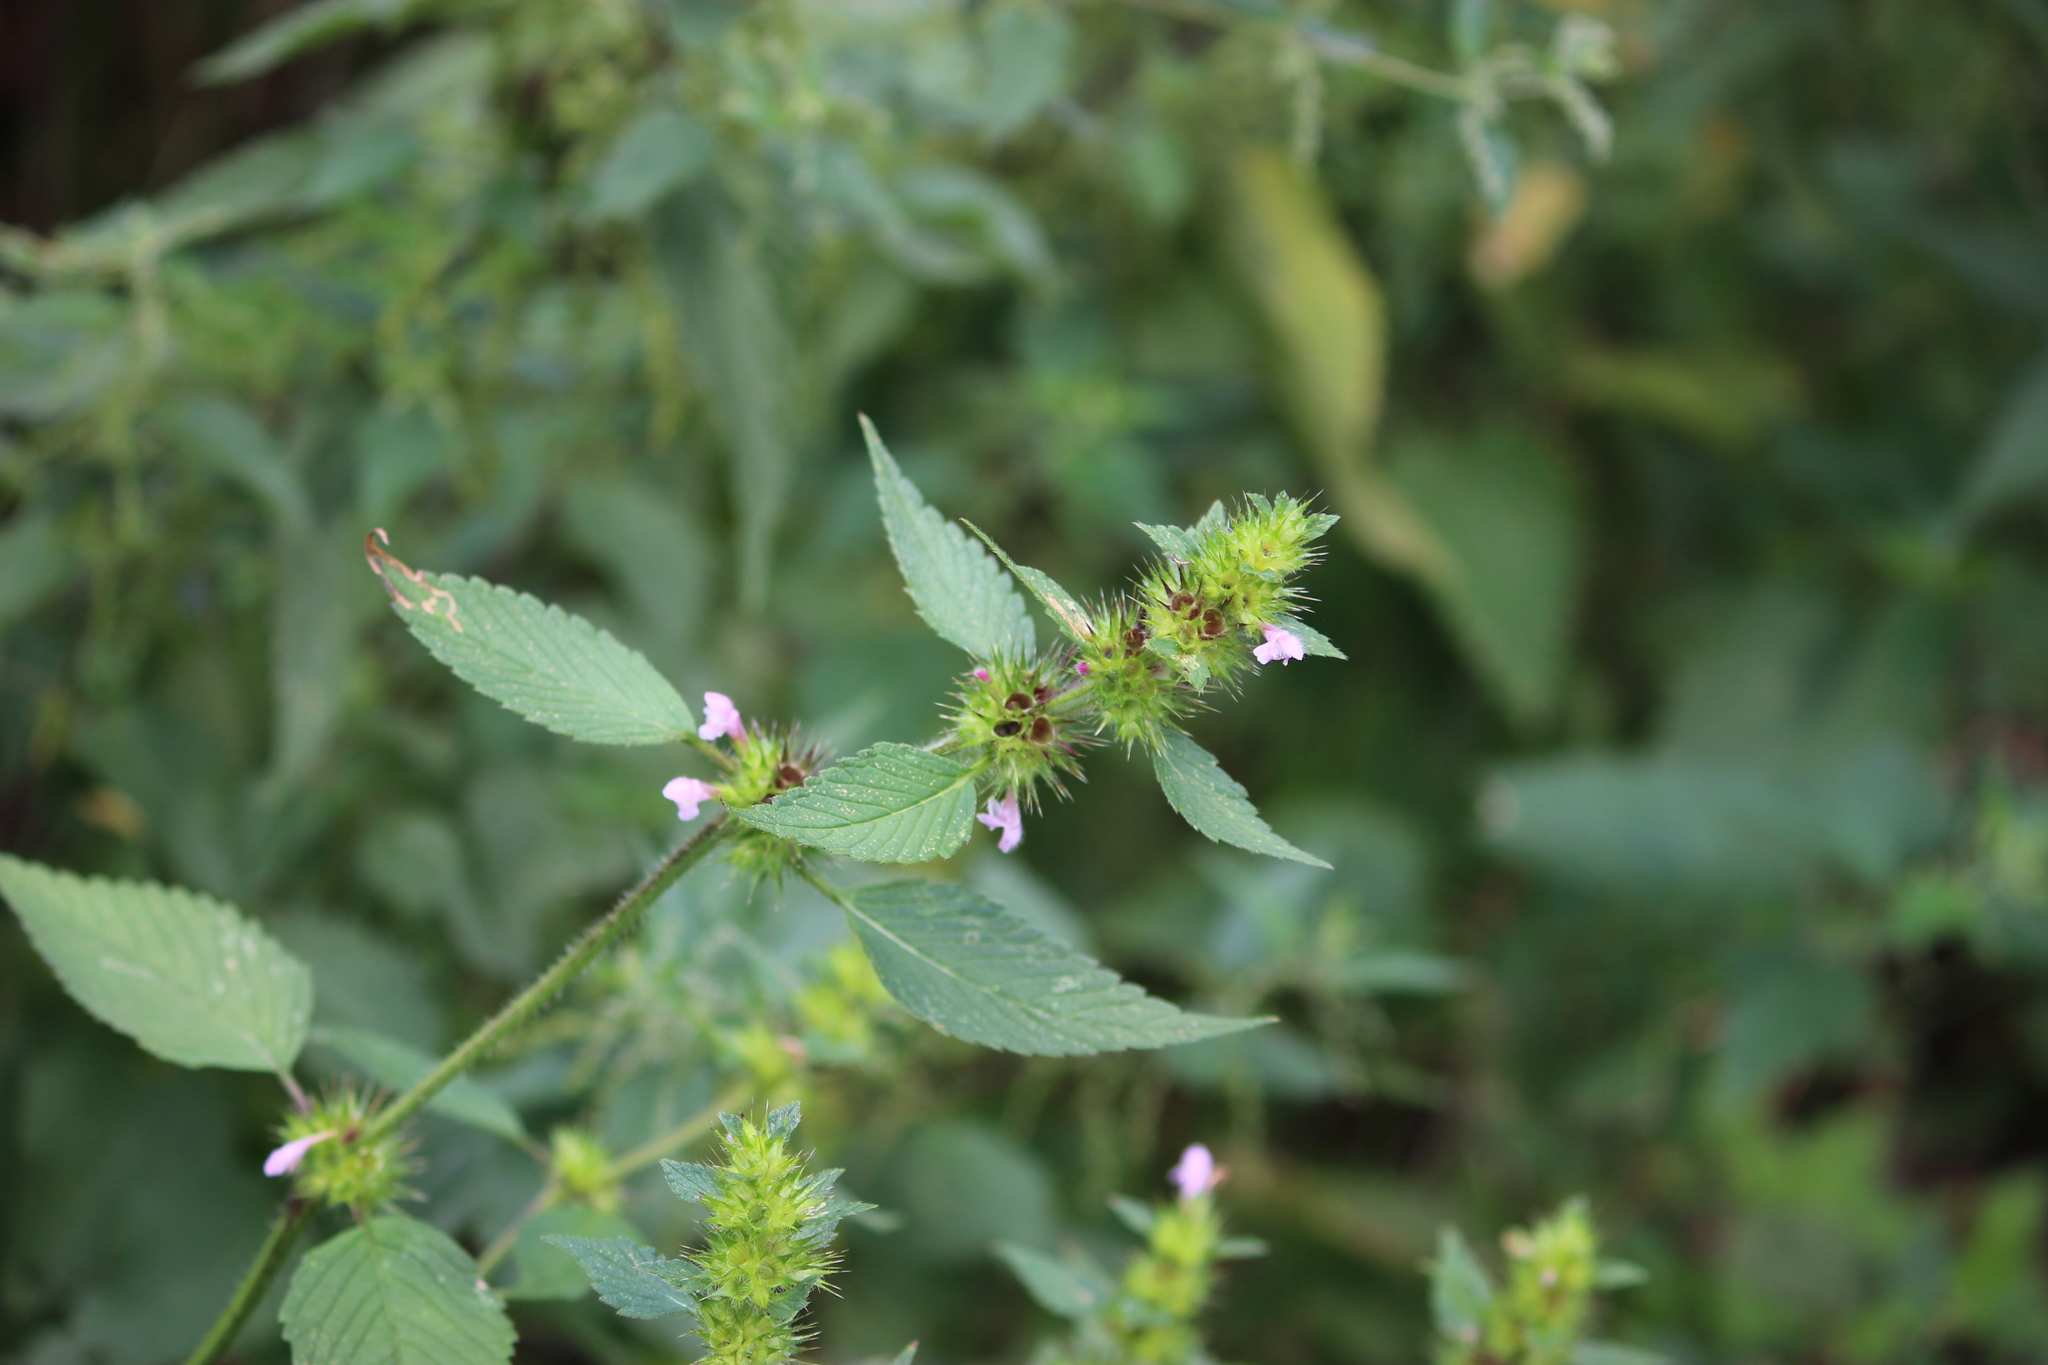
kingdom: Plantae
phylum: Tracheophyta
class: Magnoliopsida
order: Lamiales
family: Lamiaceae
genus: Galeopsis
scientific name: Galeopsis tetrahit
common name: Common hemp-nettle
